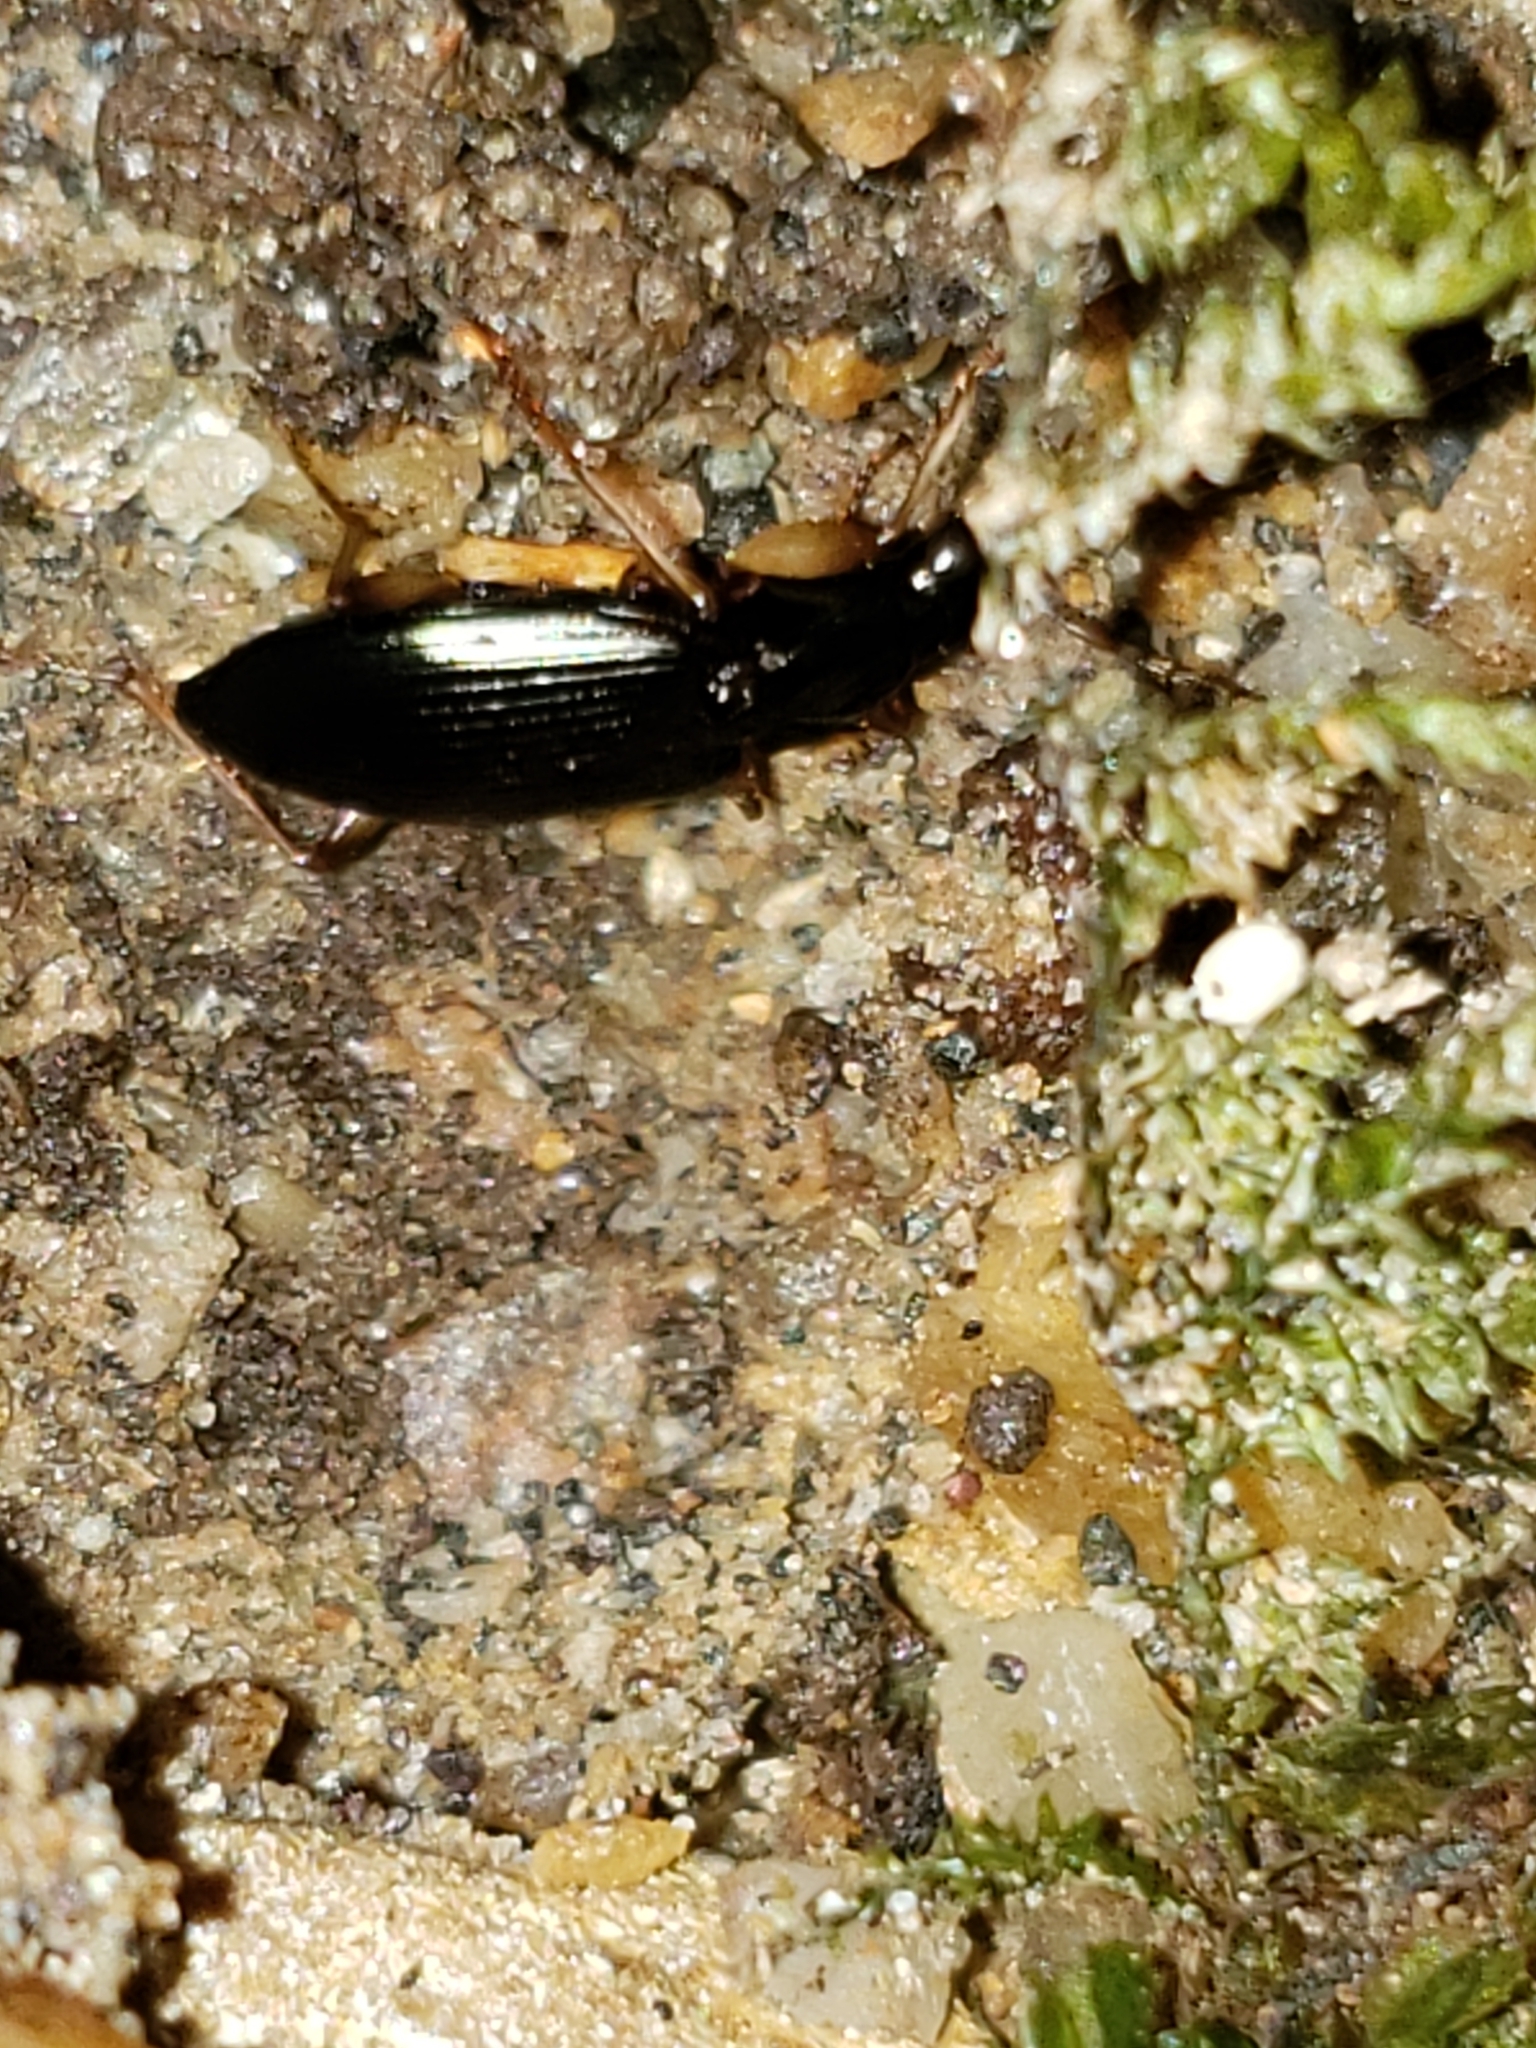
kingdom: Animalia
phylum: Arthropoda
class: Insecta
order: Coleoptera
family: Carabidae
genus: Agonum
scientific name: Agonum extensicolle
